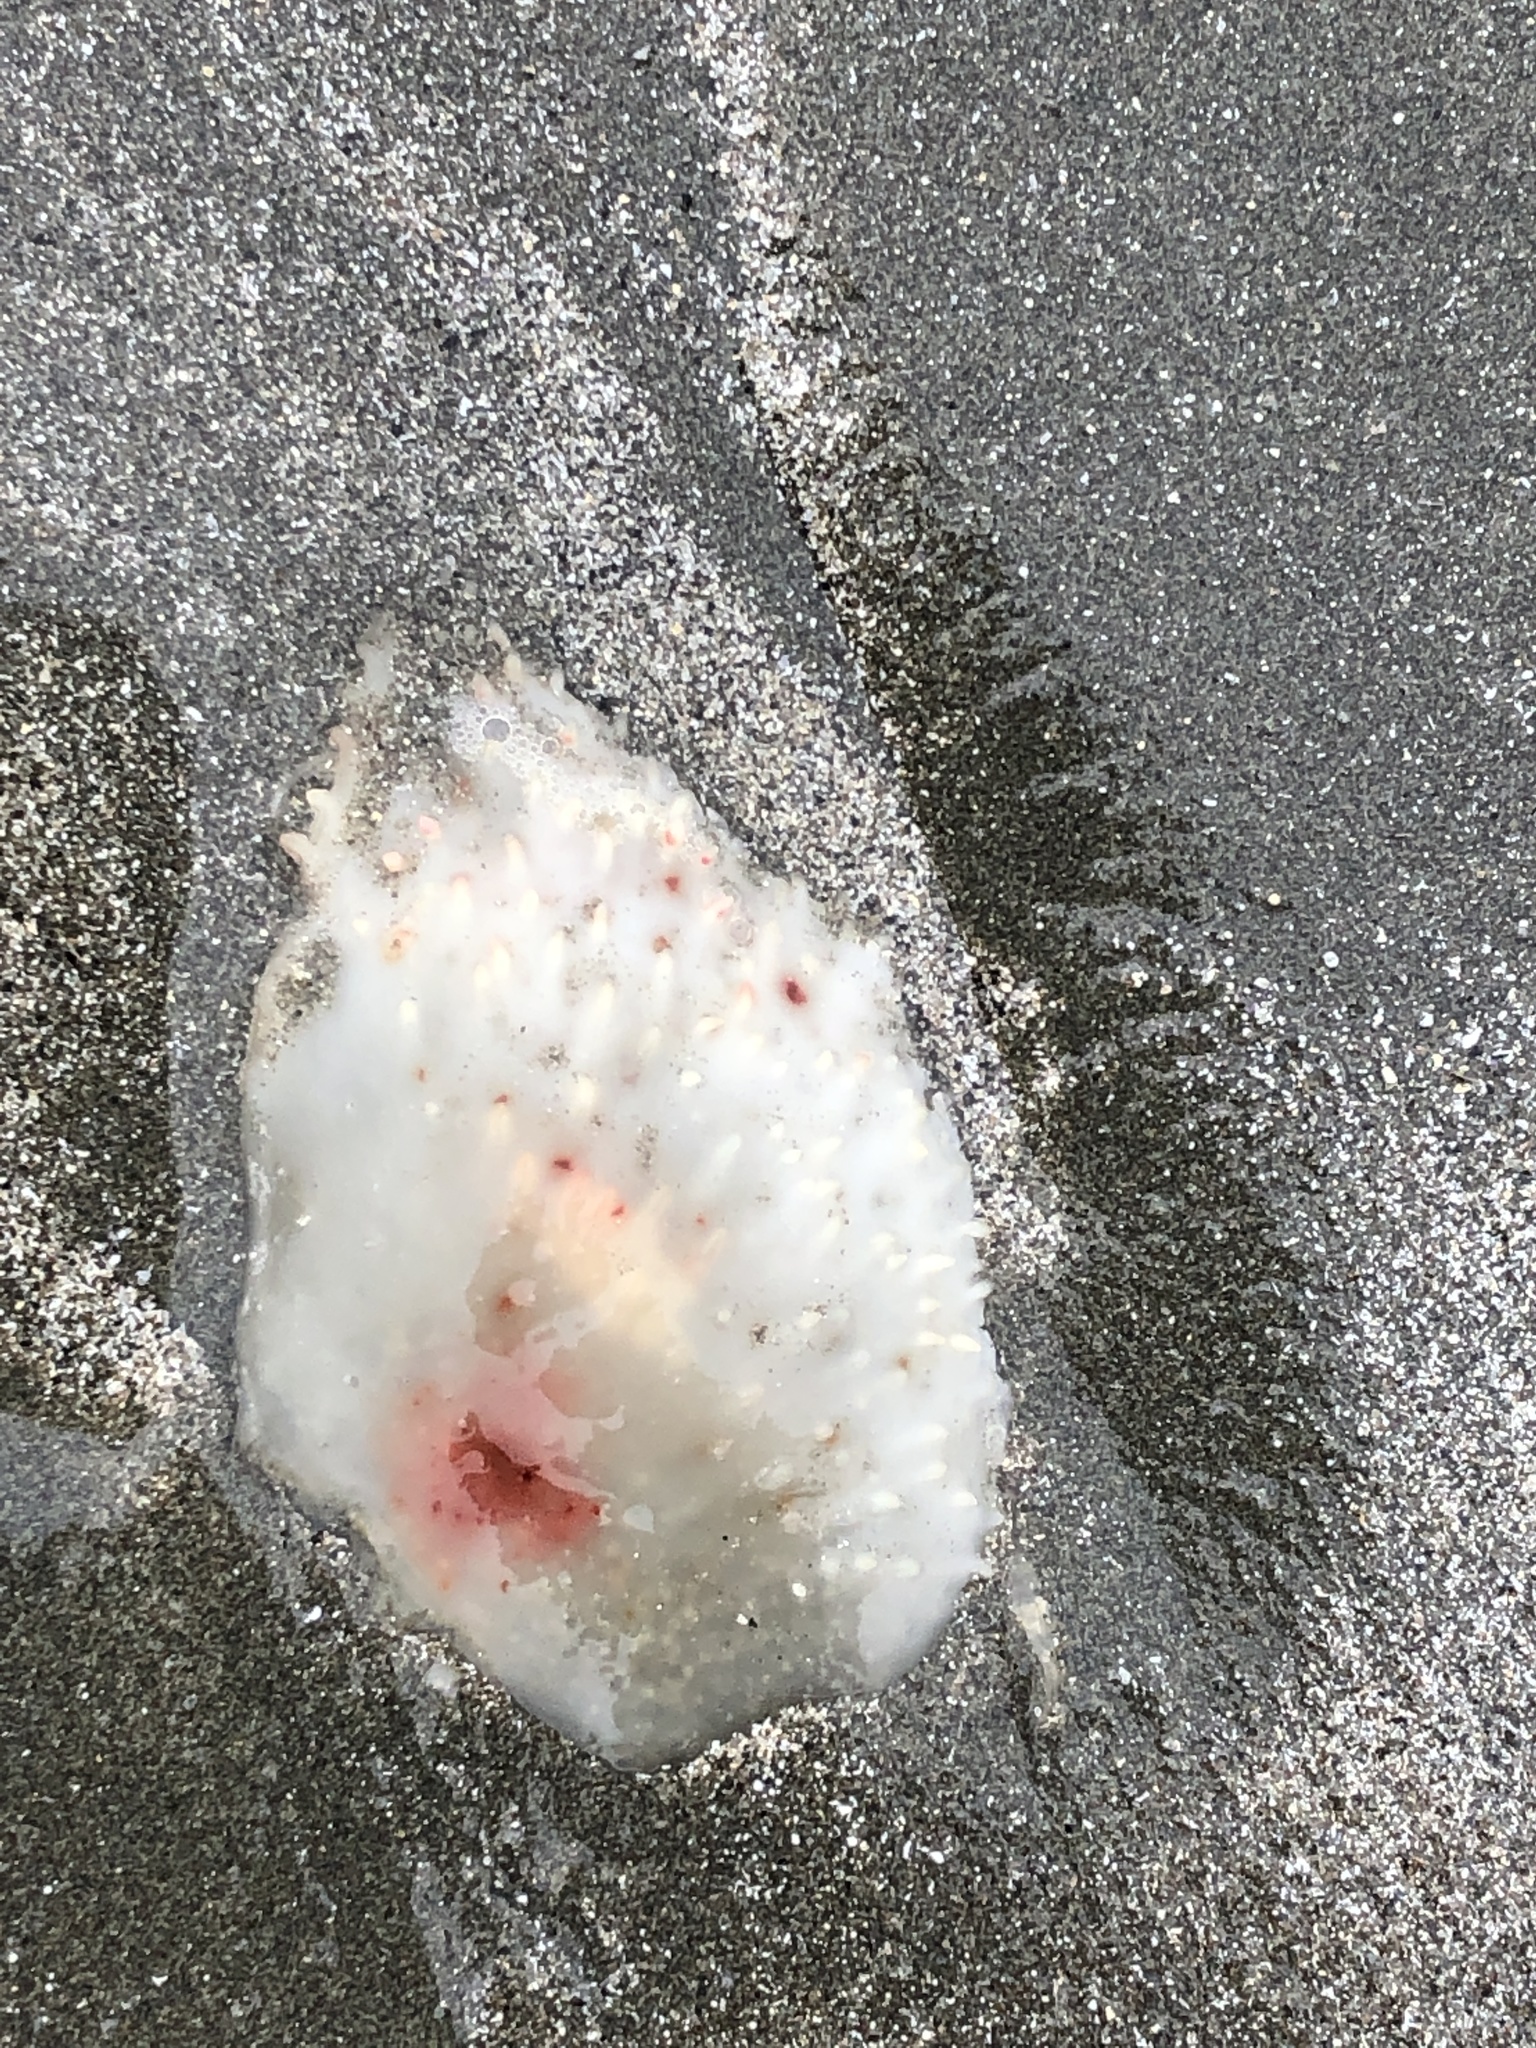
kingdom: Animalia
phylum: Cnidaria
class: Scyphozoa
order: Semaeostomeae
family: Pelagiidae
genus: Chrysaora
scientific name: Chrysaora fuscescens
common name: Sea nettle
